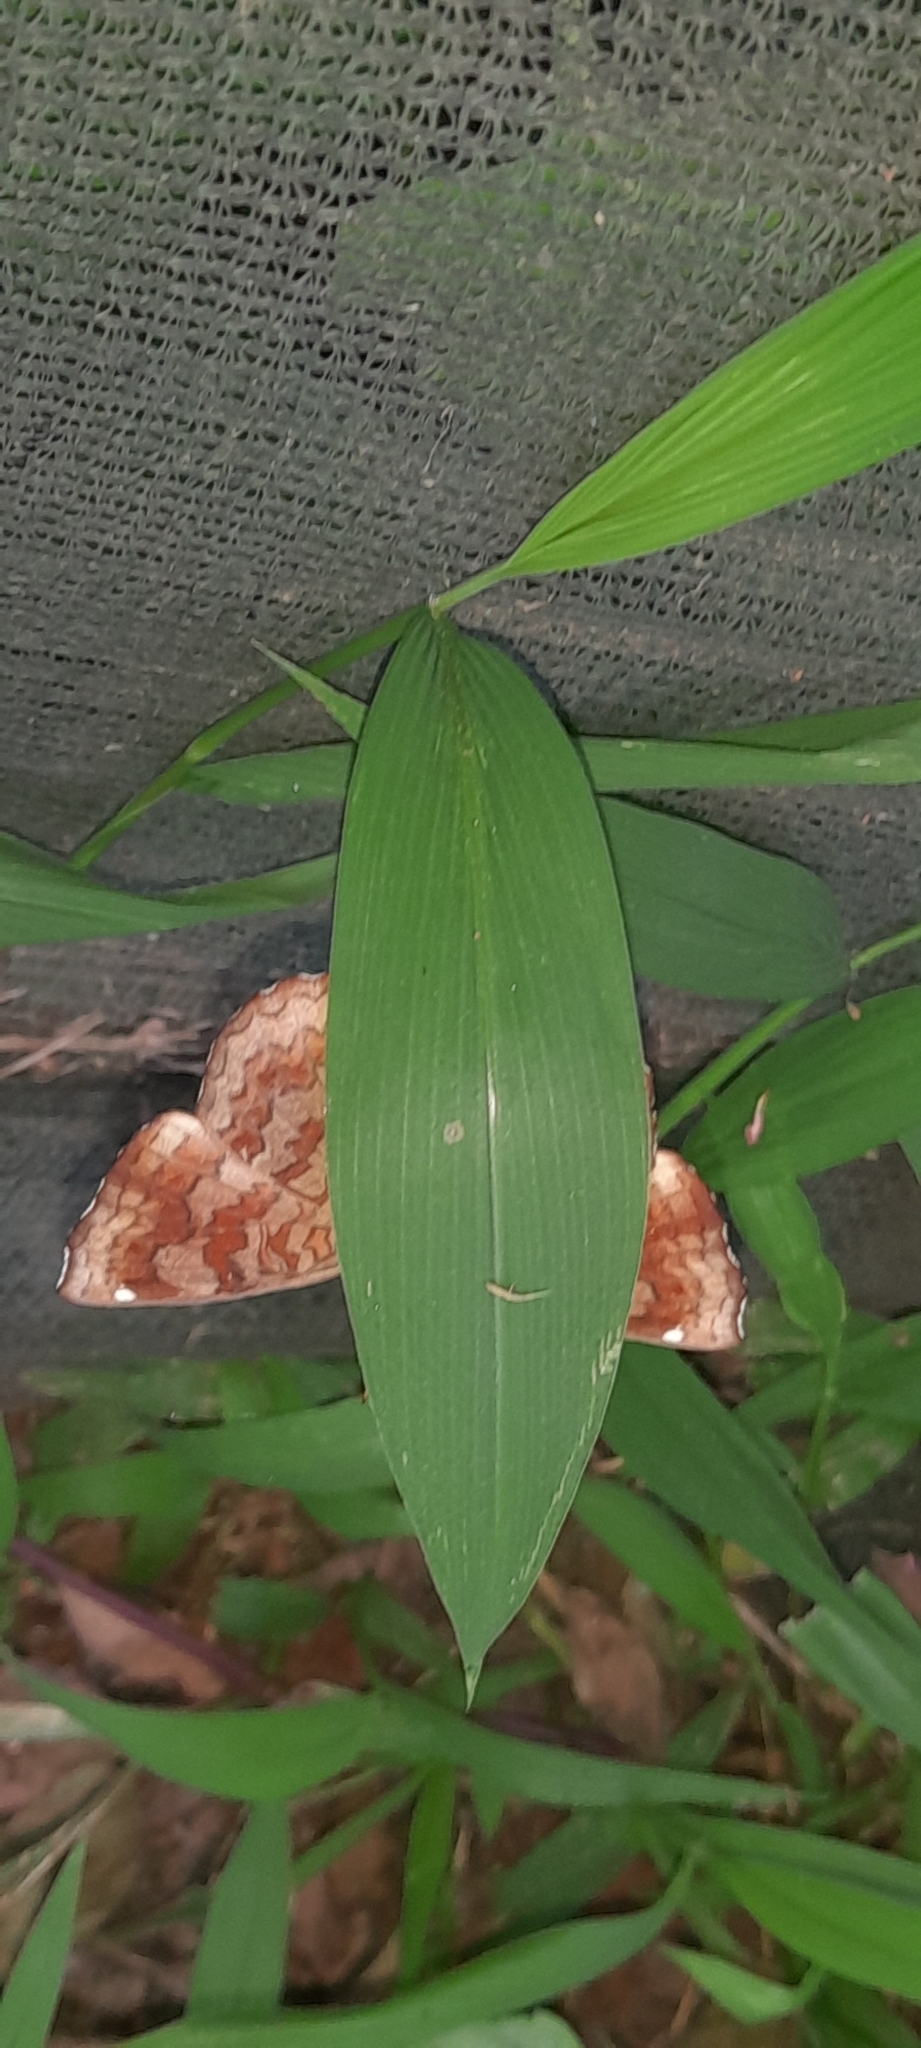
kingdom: Animalia
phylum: Arthropoda
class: Insecta
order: Lepidoptera
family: Nymphalidae
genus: Ariadne
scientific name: Ariadne merione
